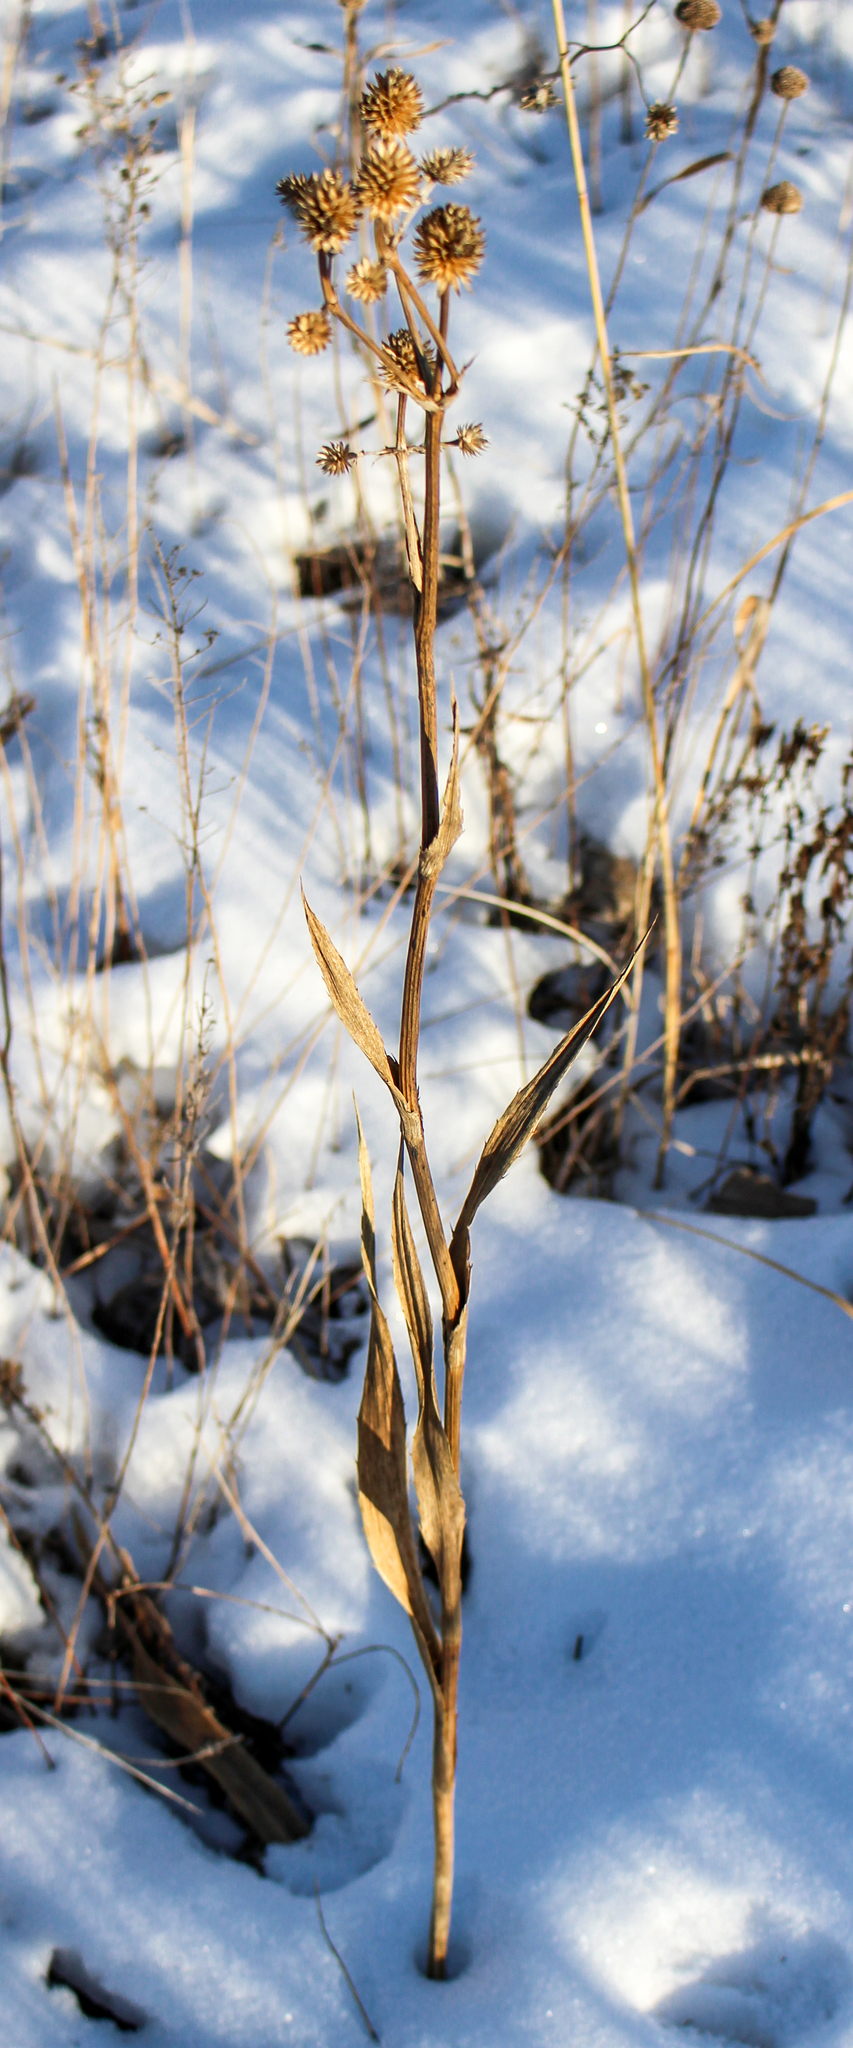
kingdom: Plantae
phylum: Tracheophyta
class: Magnoliopsida
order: Apiales
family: Apiaceae
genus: Eryngium
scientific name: Eryngium yuccifolium
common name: Button eryngo
